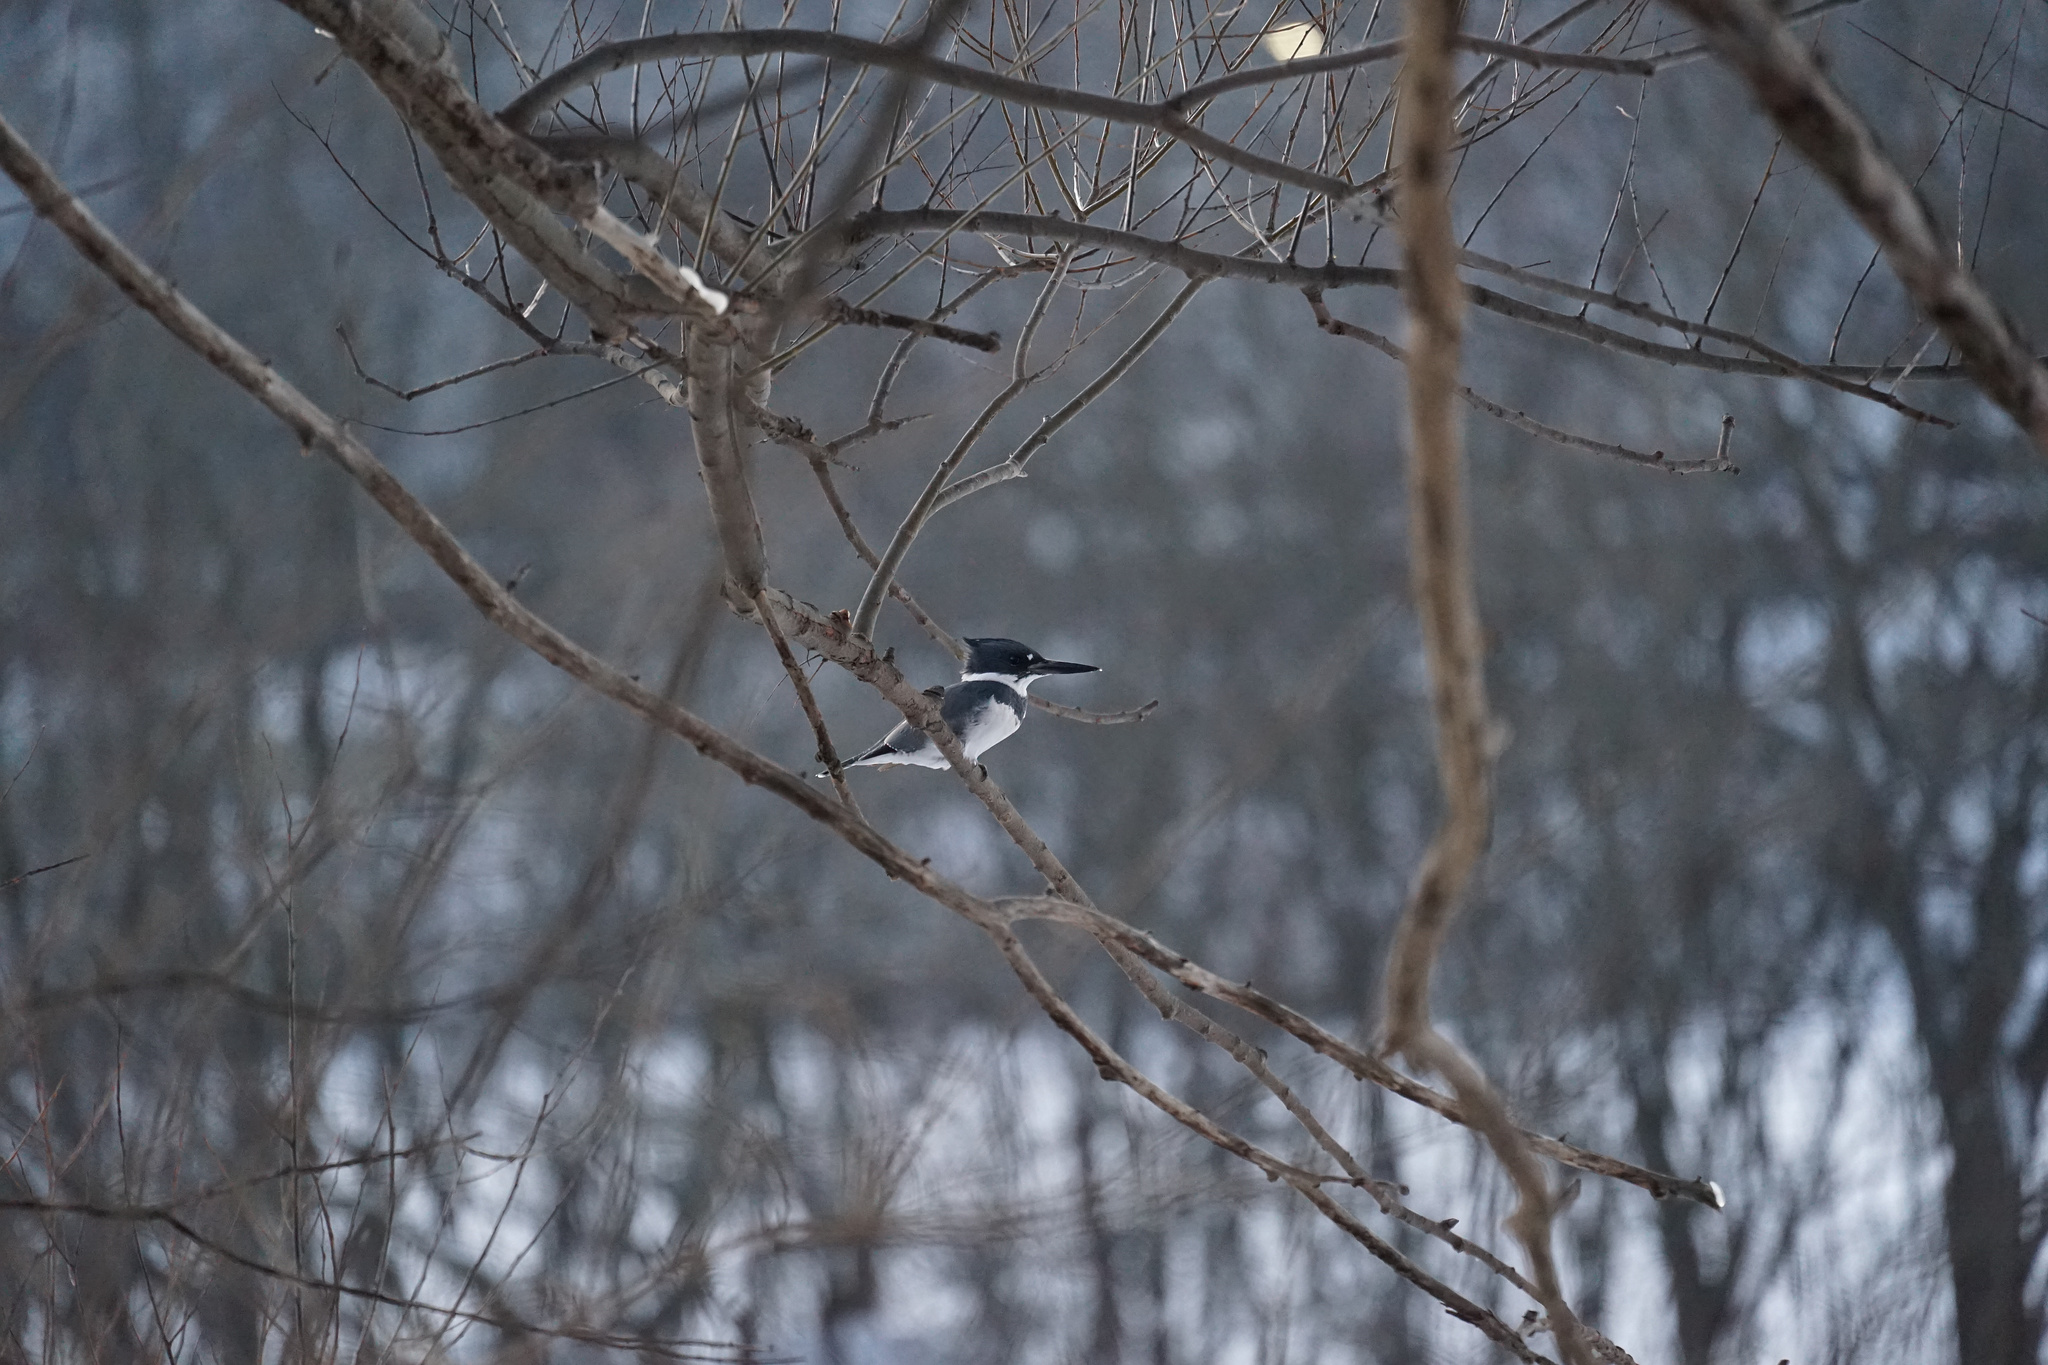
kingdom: Animalia
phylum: Chordata
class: Aves
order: Coraciiformes
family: Alcedinidae
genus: Megaceryle
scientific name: Megaceryle alcyon
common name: Belted kingfisher
